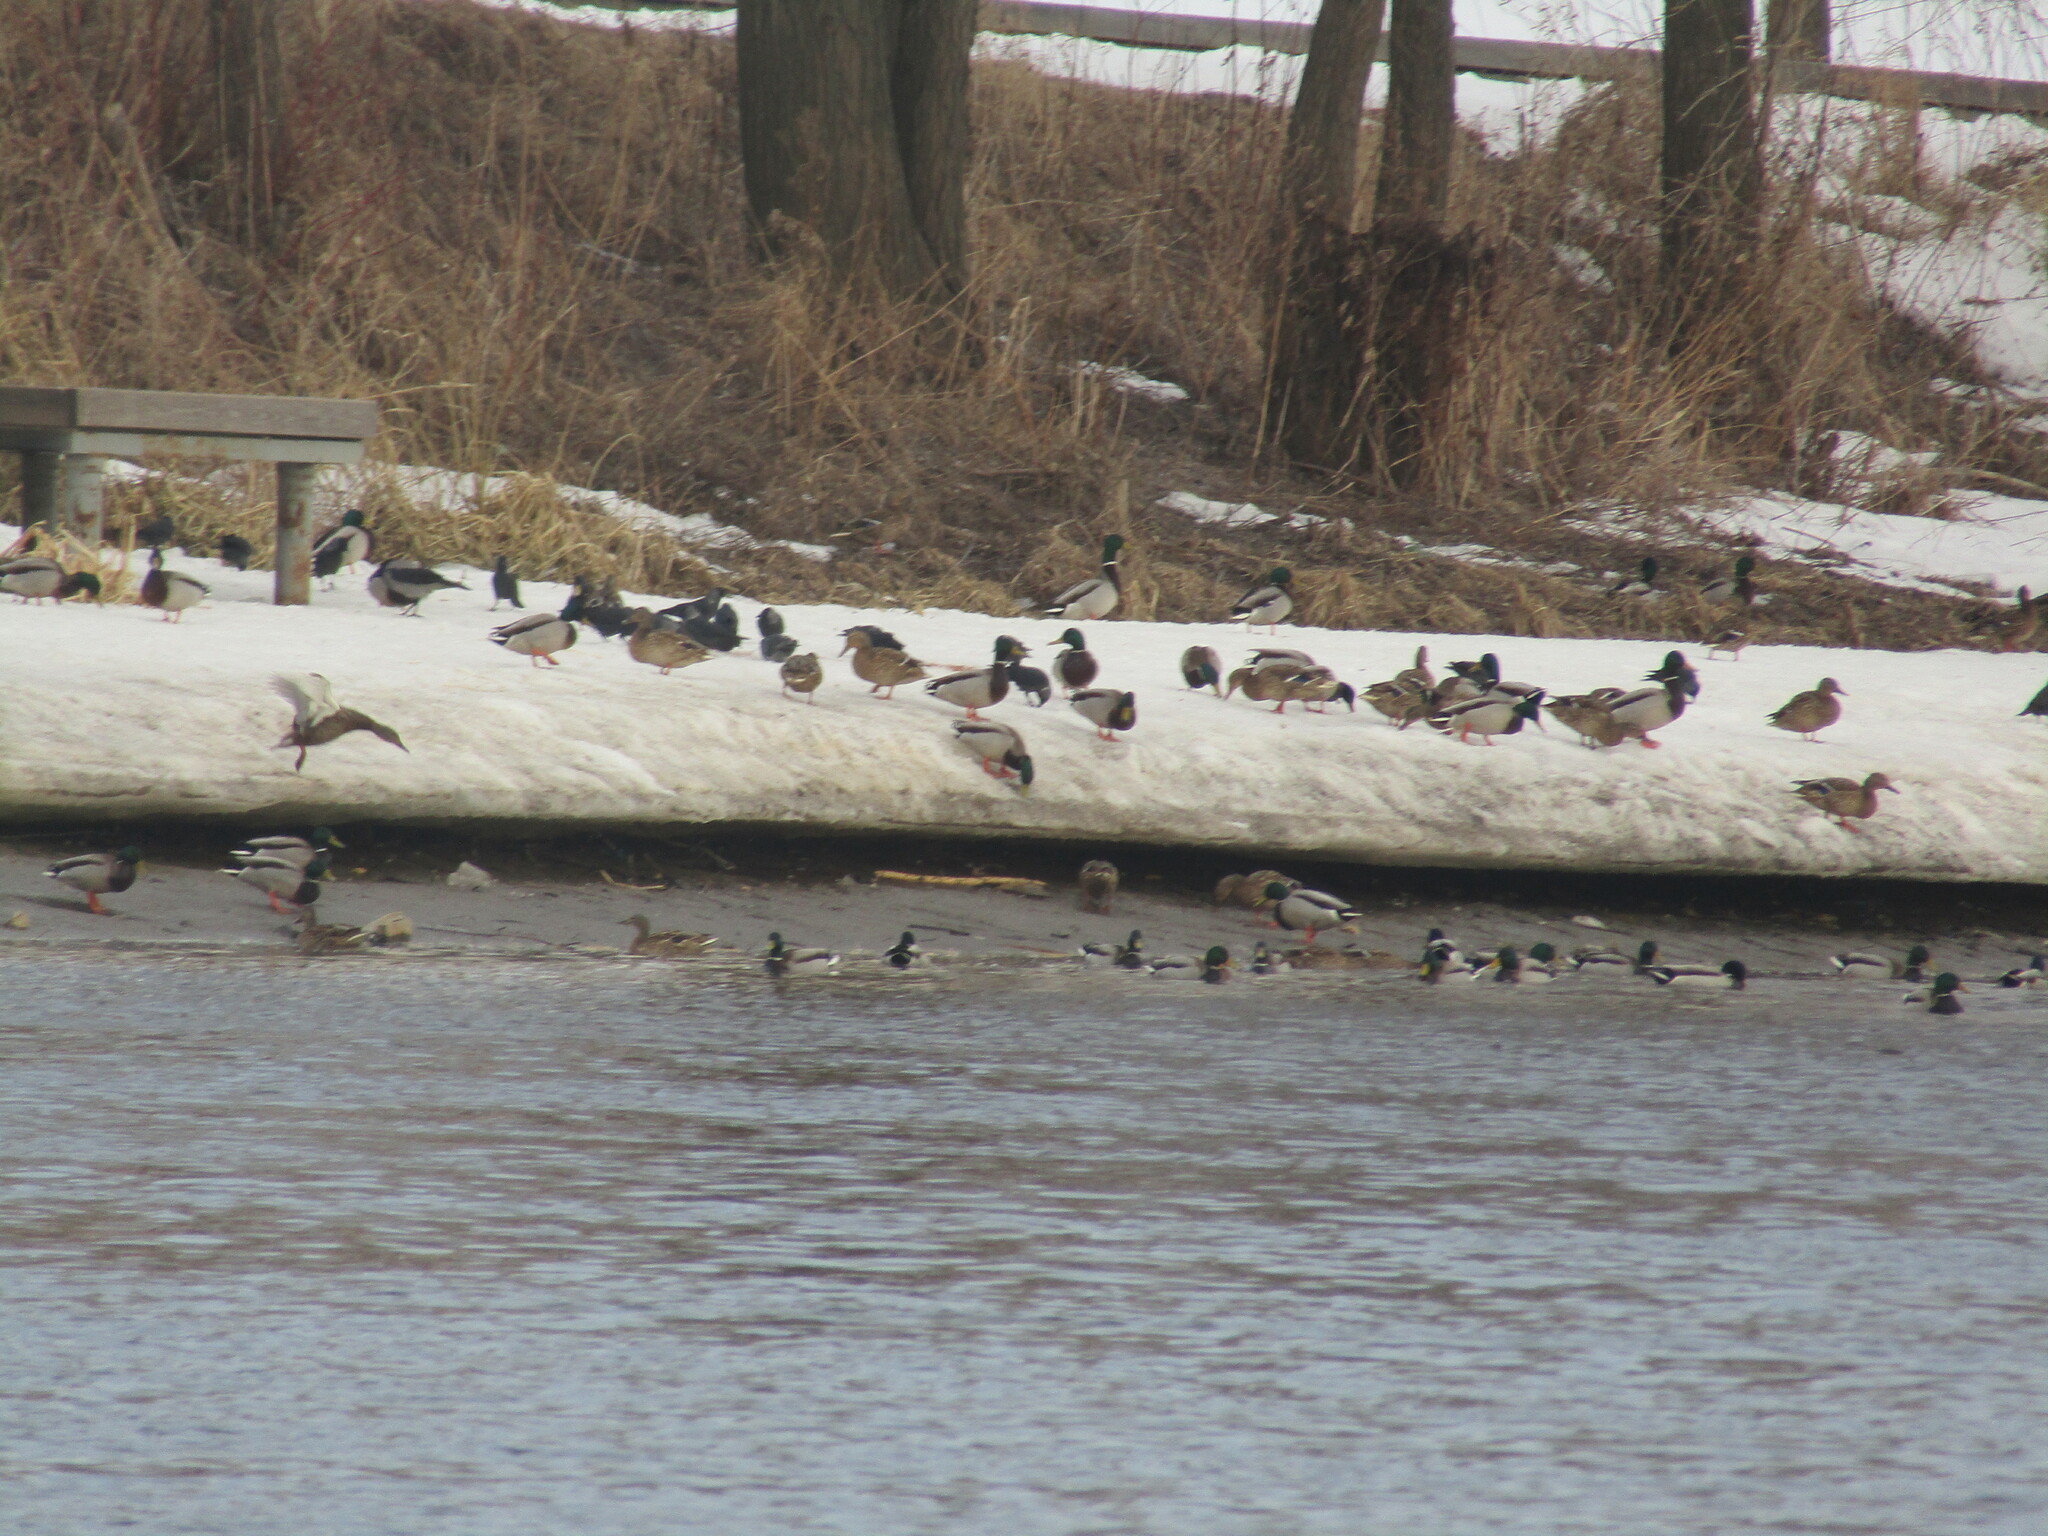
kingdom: Animalia
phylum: Chordata
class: Aves
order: Anseriformes
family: Anatidae
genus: Anas
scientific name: Anas platyrhynchos
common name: Mallard
